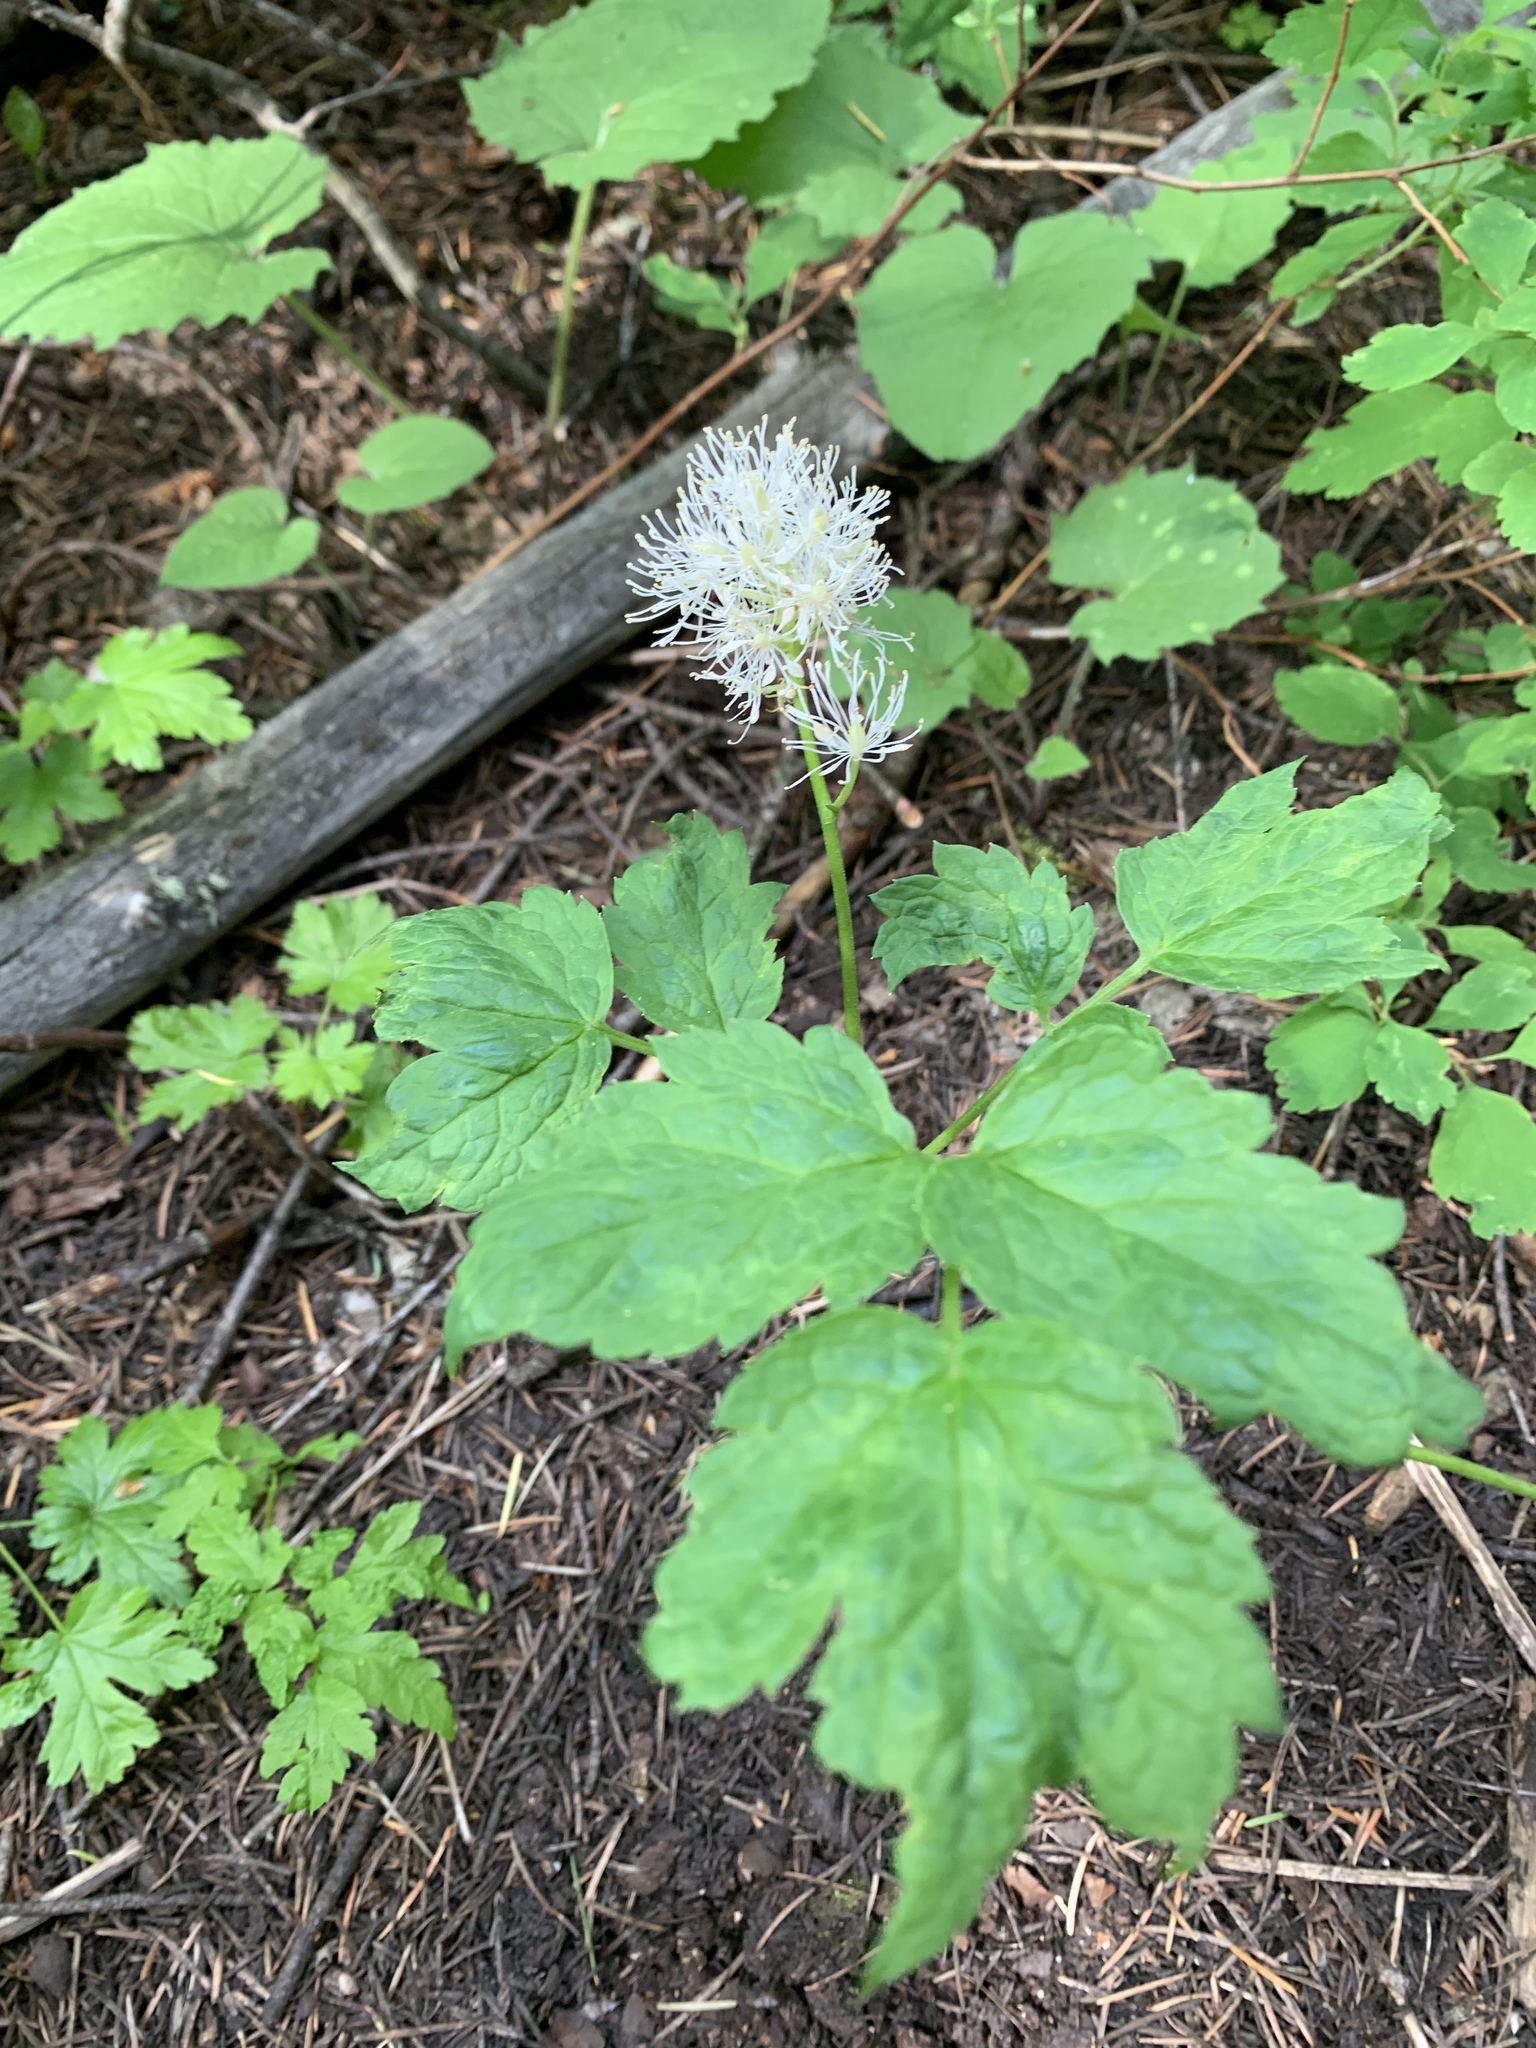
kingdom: Plantae
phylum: Tracheophyta
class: Magnoliopsida
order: Ranunculales
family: Ranunculaceae
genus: Actaea
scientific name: Actaea rubra
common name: Red baneberry
